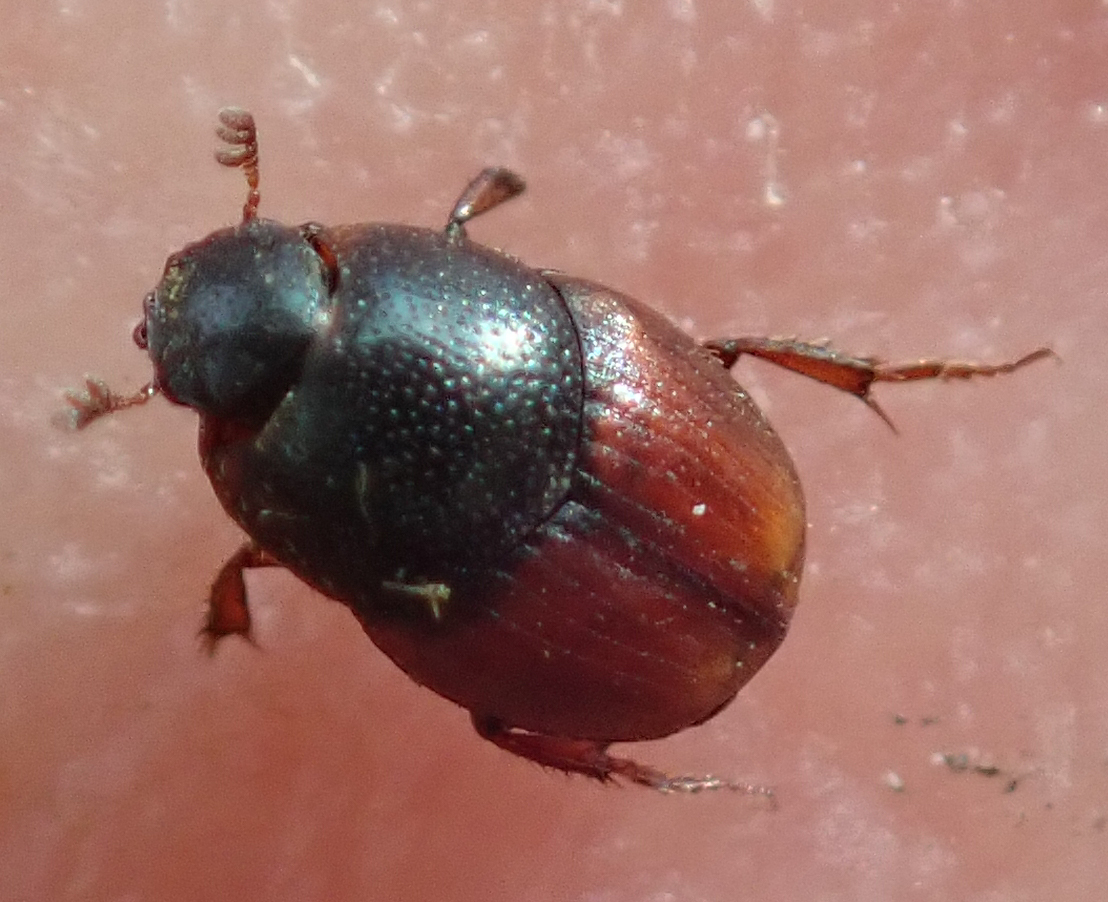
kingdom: Animalia
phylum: Arthropoda
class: Insecta
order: Coleoptera
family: Scarabaeidae
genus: Cleptocaccobius
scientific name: Cleptocaccobius viridicollis
